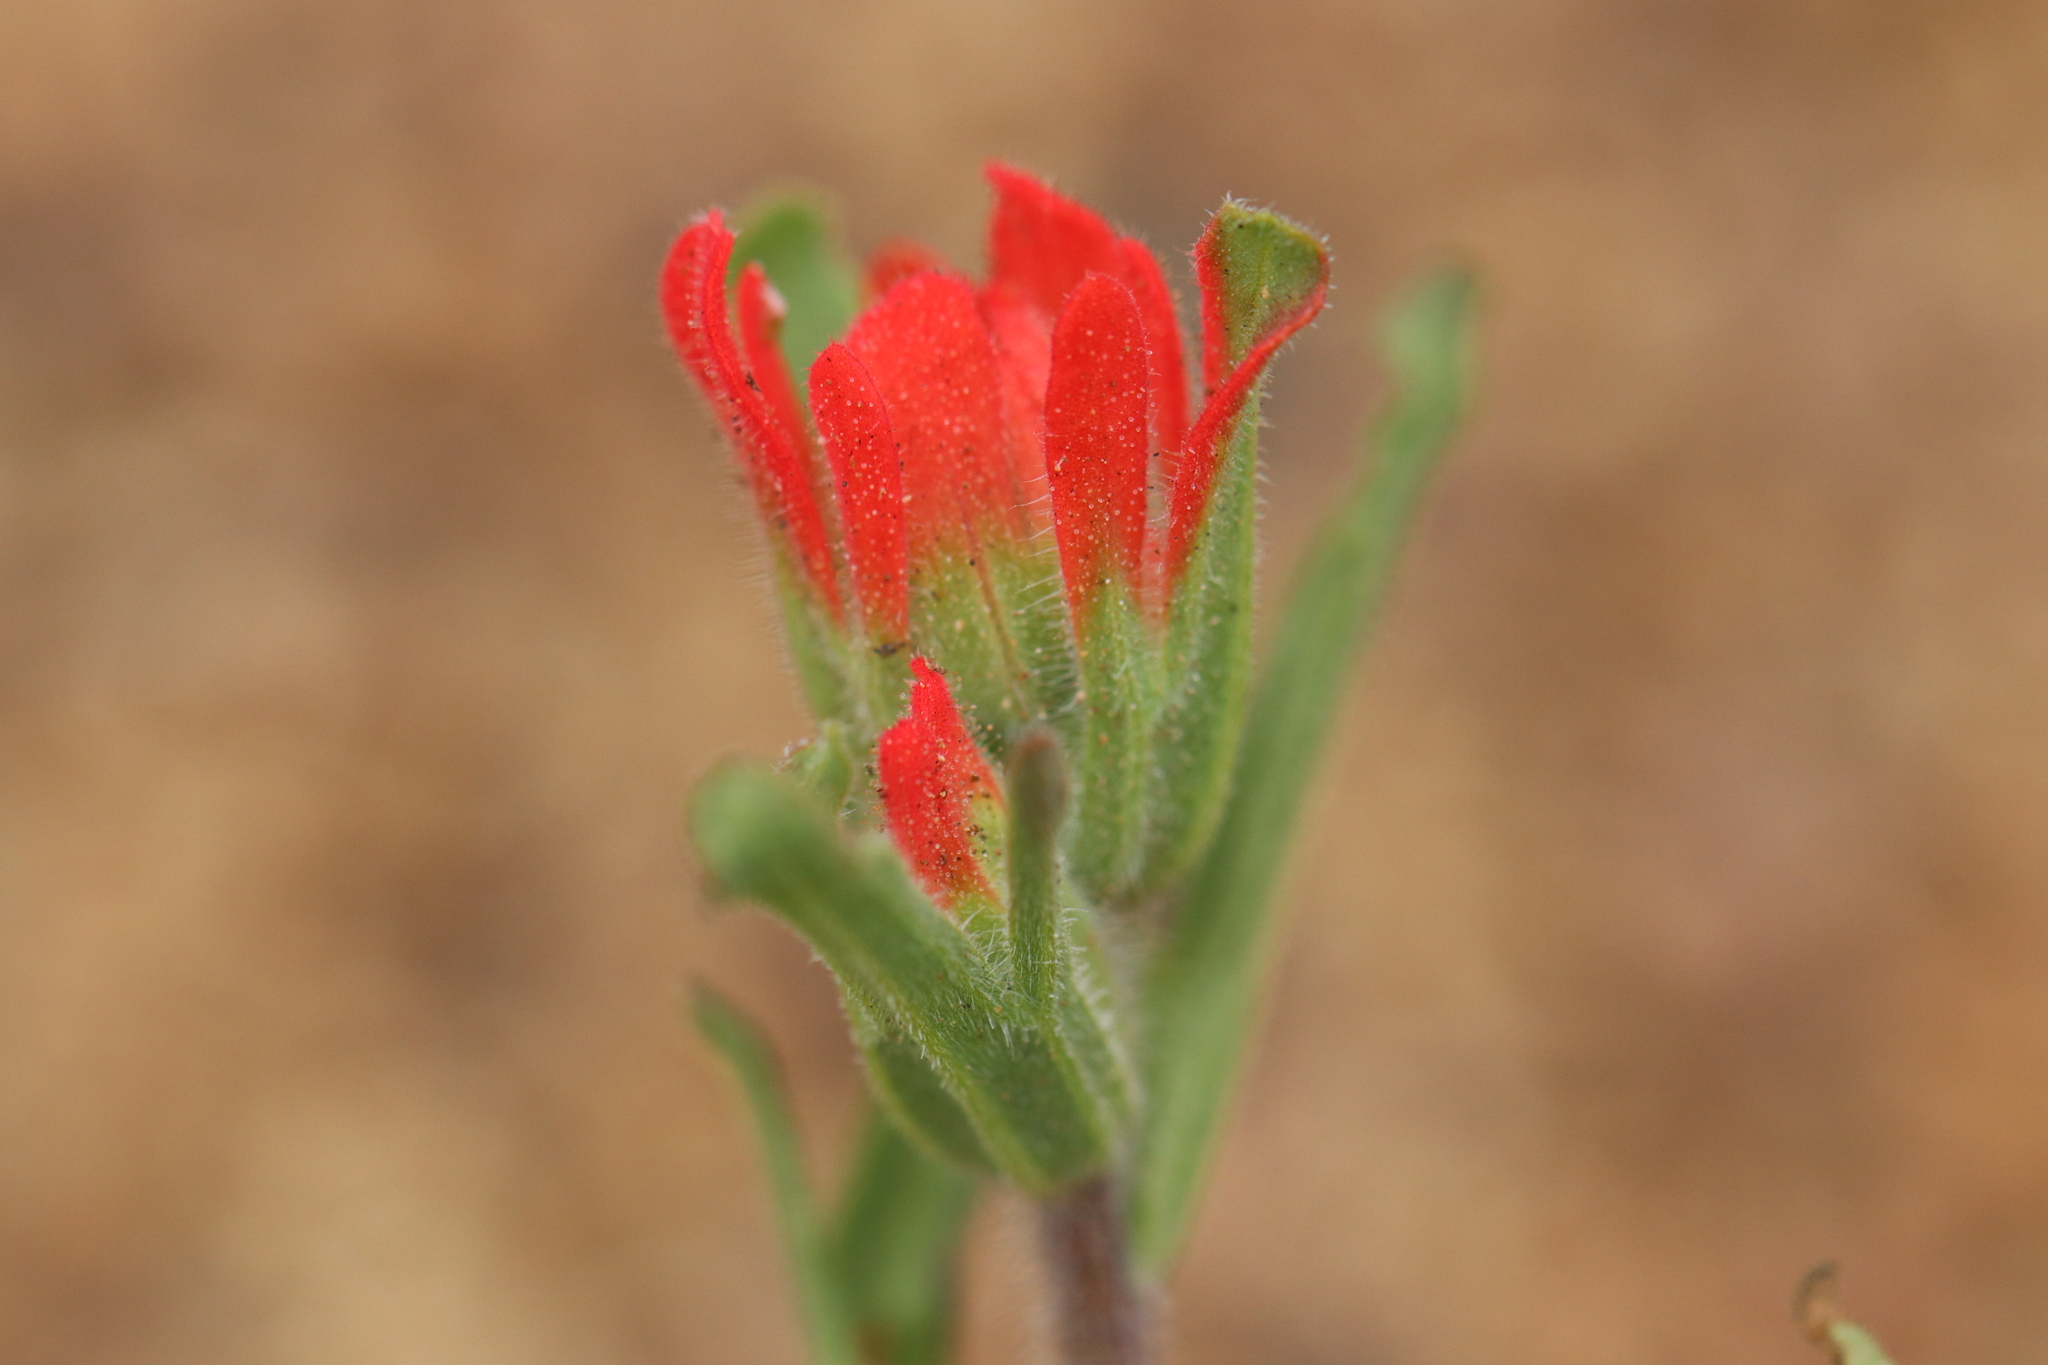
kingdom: Plantae
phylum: Tracheophyta
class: Magnoliopsida
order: Lamiales
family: Orobanchaceae
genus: Castilleja
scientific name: Castilleja affinis
